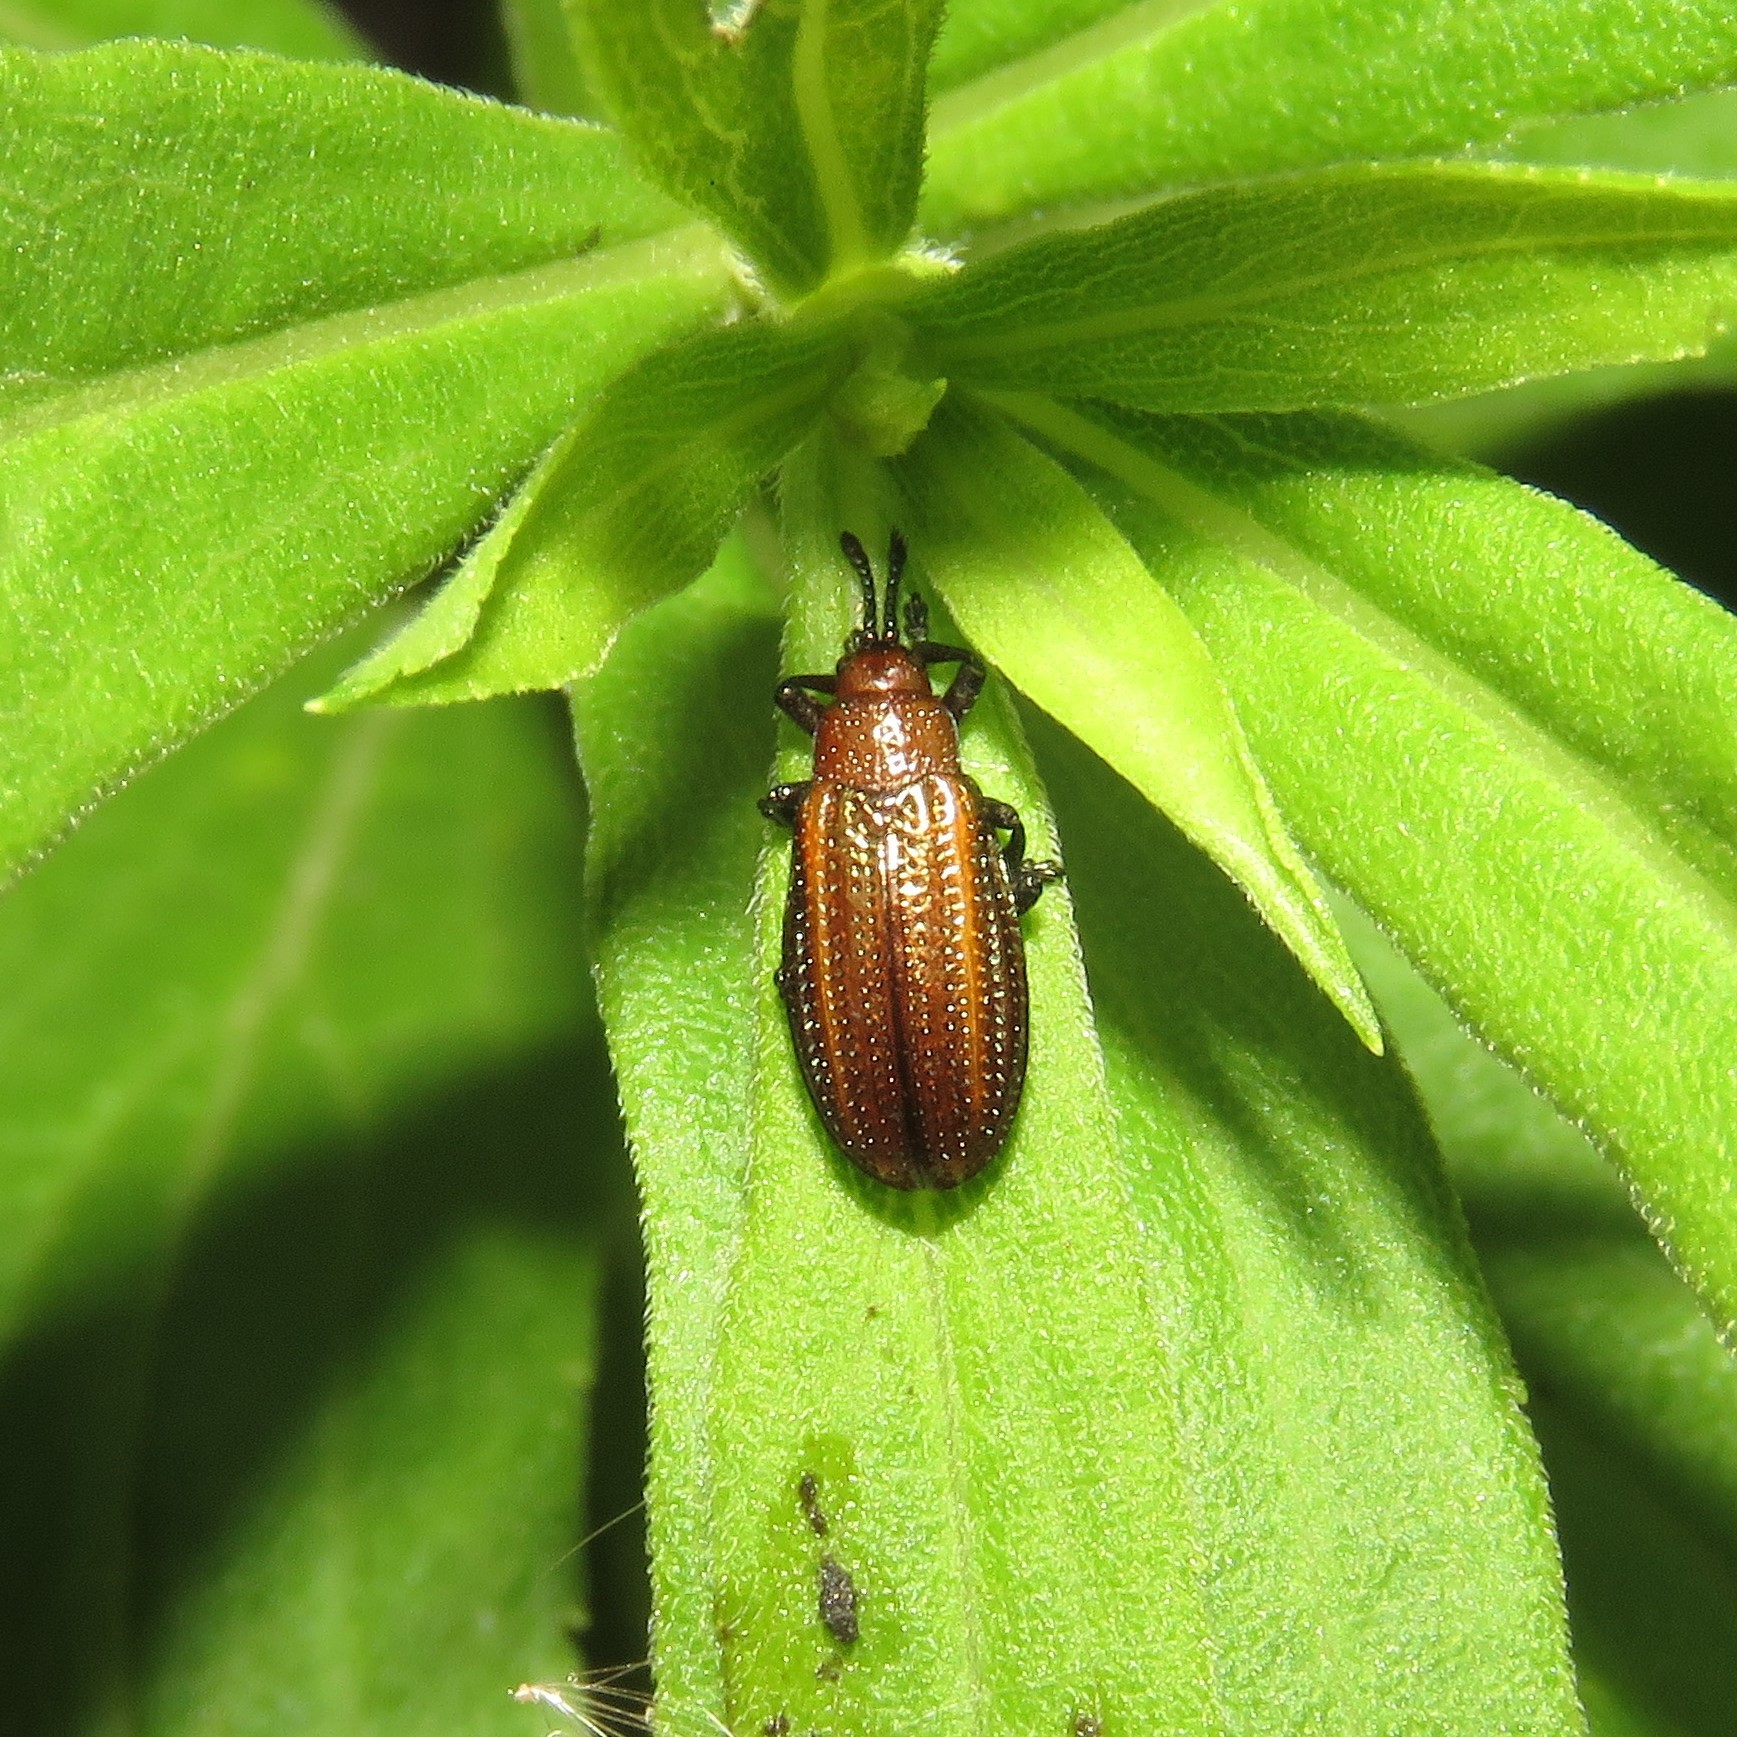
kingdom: Animalia
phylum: Arthropoda
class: Insecta
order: Coleoptera
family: Chrysomelidae
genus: Microrhopala
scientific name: Microrhopala vittata
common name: Goldenrod leaf miner beetle
